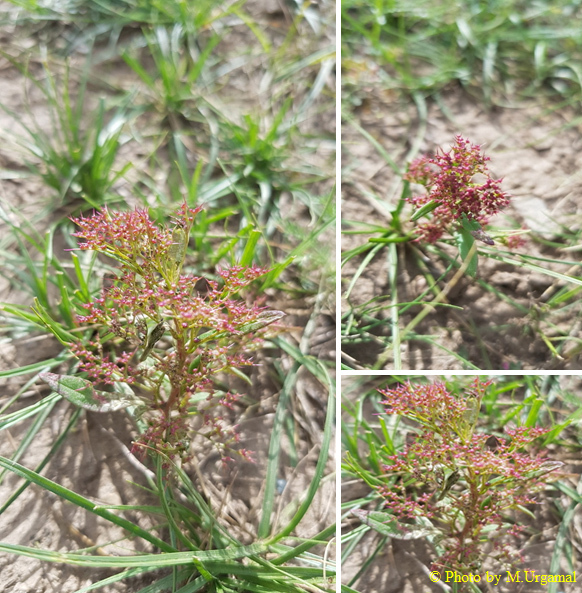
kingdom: Plantae
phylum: Tracheophyta
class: Magnoliopsida
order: Caryophyllales
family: Amaranthaceae
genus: Teloxys
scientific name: Teloxys aristata
